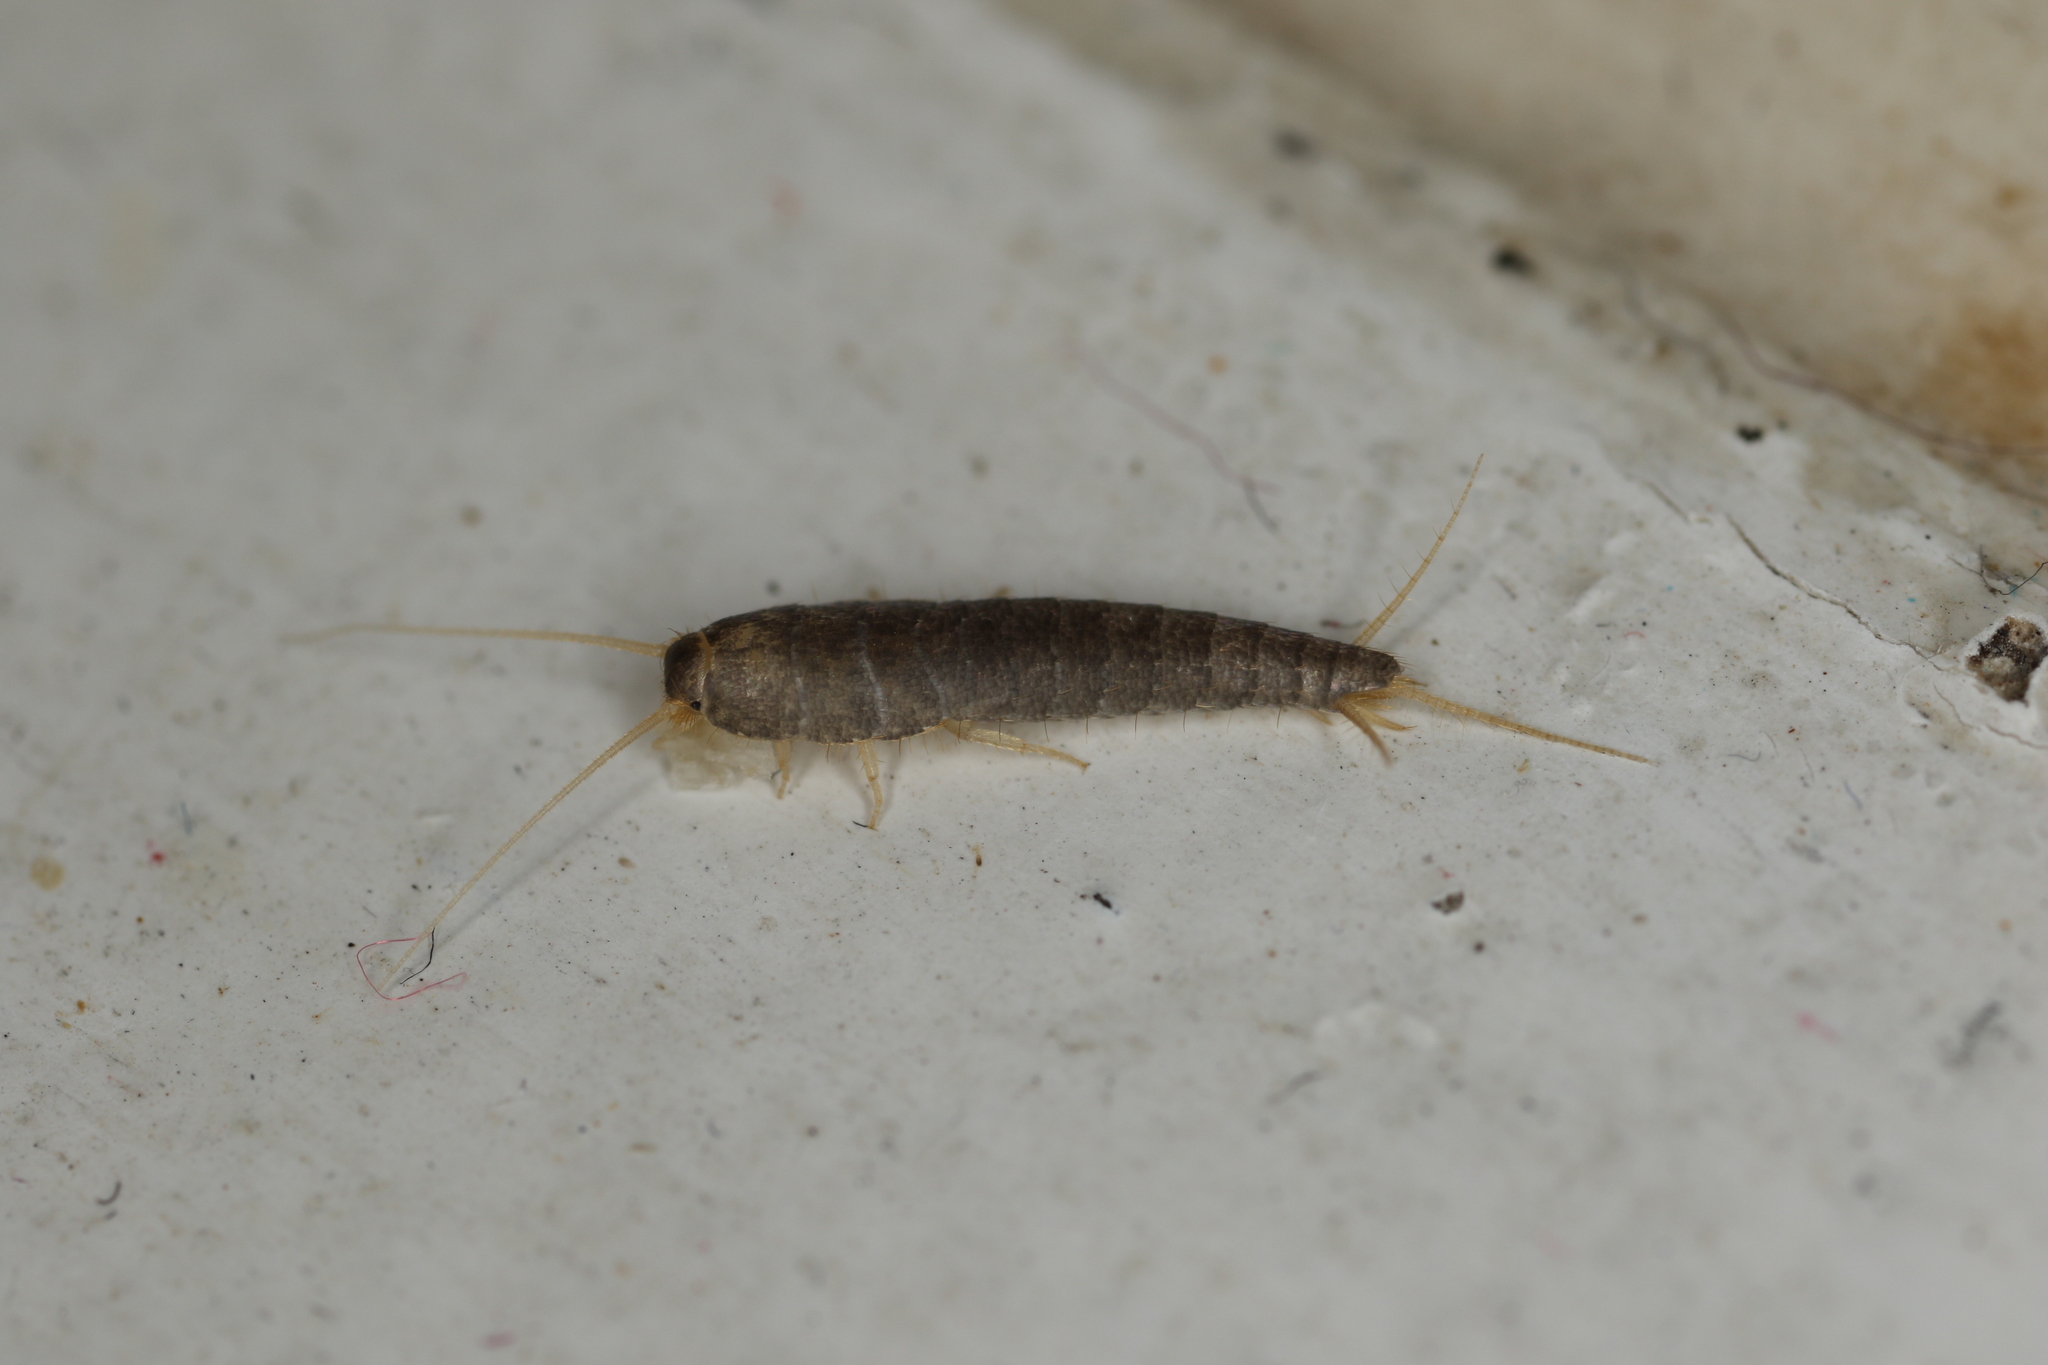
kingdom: Animalia
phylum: Arthropoda
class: Insecta
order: Zygentoma
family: Lepismatidae
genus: Lepisma
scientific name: Lepisma saccharinum
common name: Silverfish
